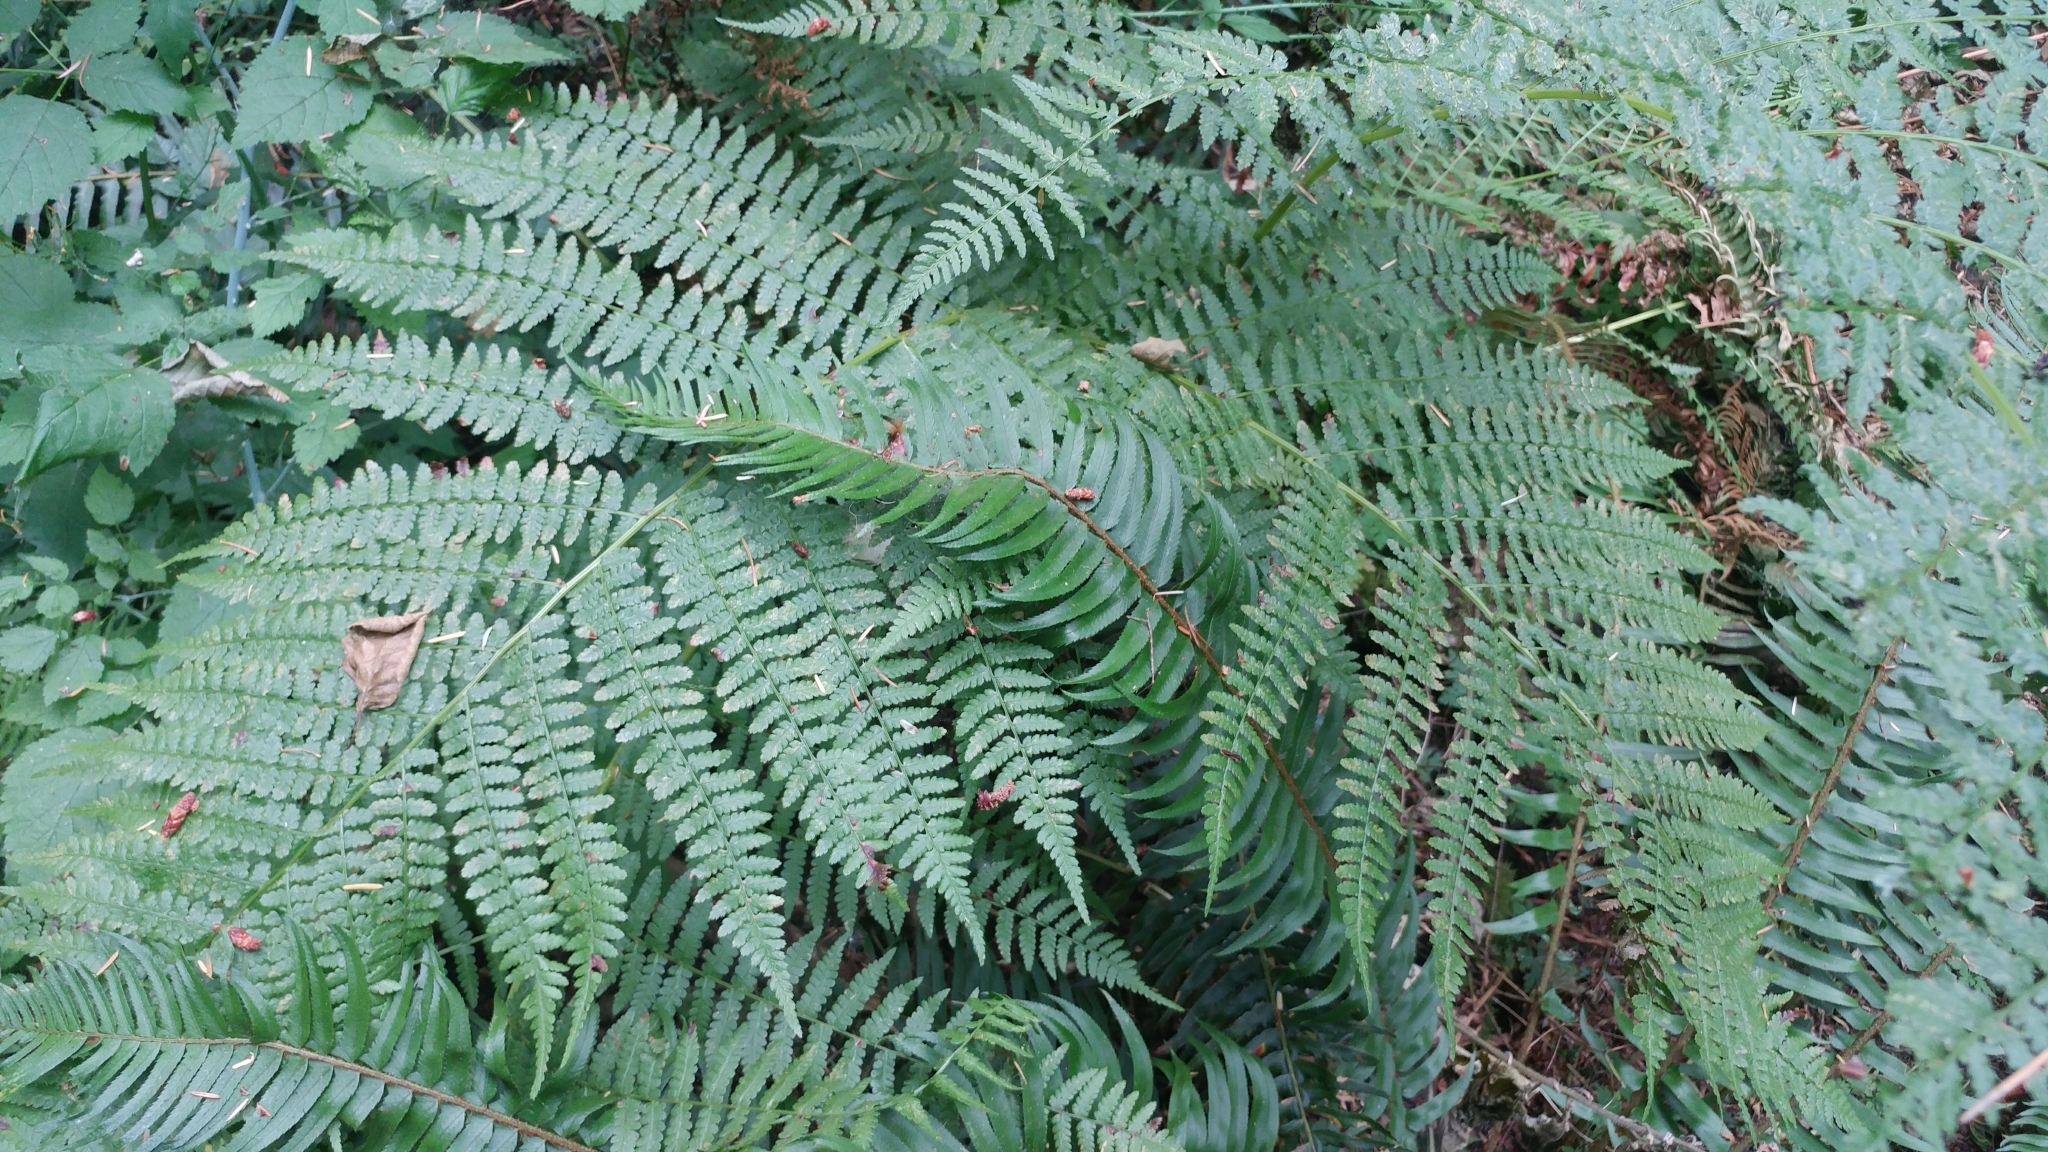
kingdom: Plantae
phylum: Tracheophyta
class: Polypodiopsida
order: Polypodiales
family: Athyriaceae
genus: Athyrium
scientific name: Athyrium filix-femina
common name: Lady fern
